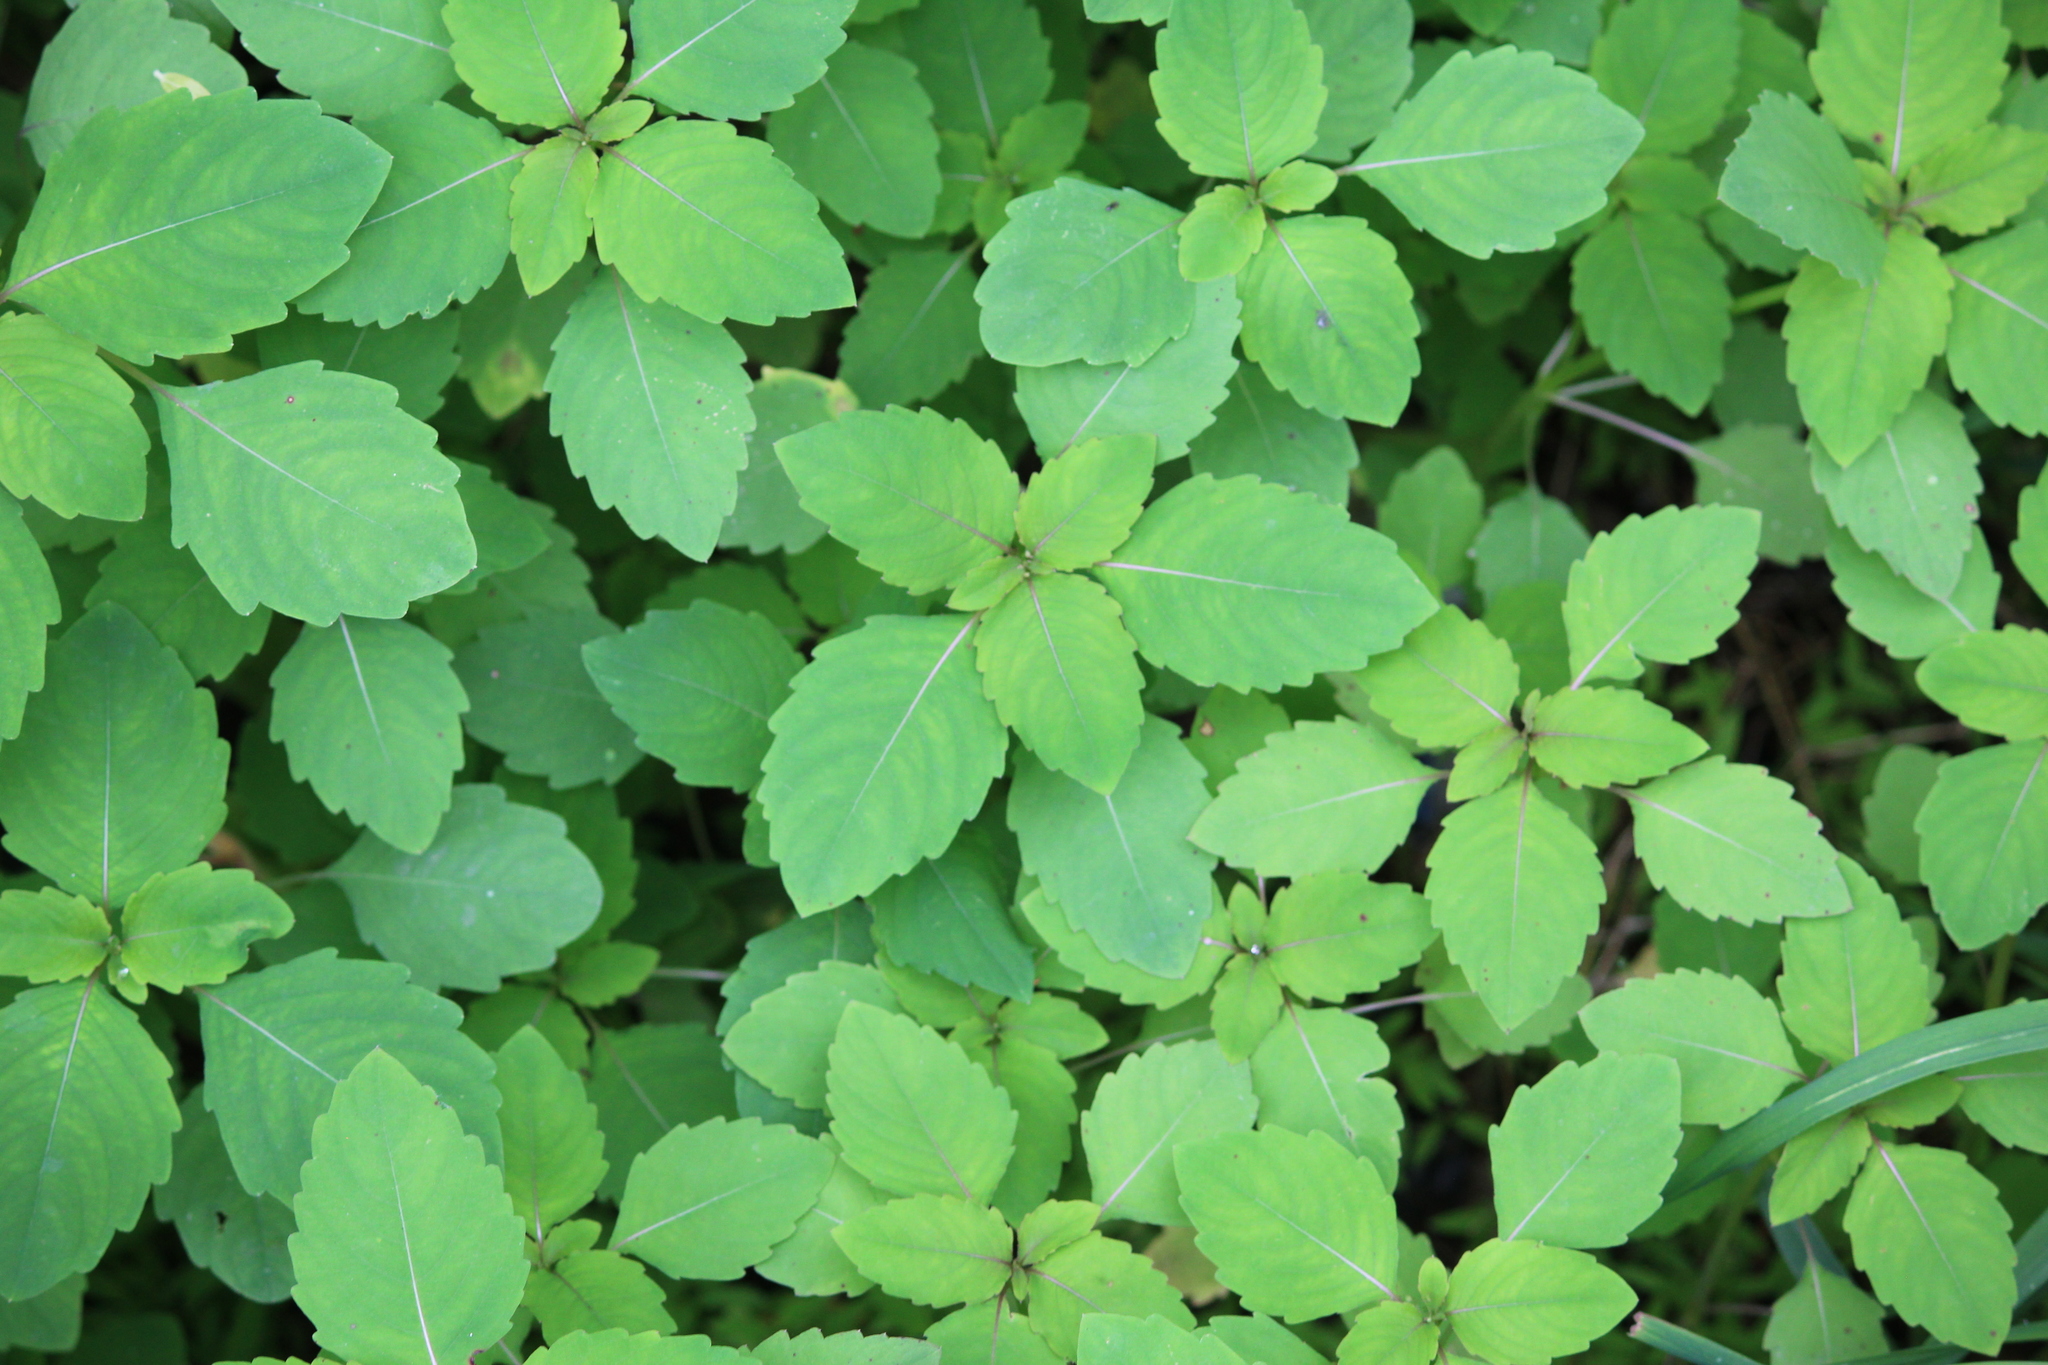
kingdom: Plantae
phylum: Tracheophyta
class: Magnoliopsida
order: Ericales
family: Balsaminaceae
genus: Impatiens
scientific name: Impatiens capensis
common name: Orange balsam
